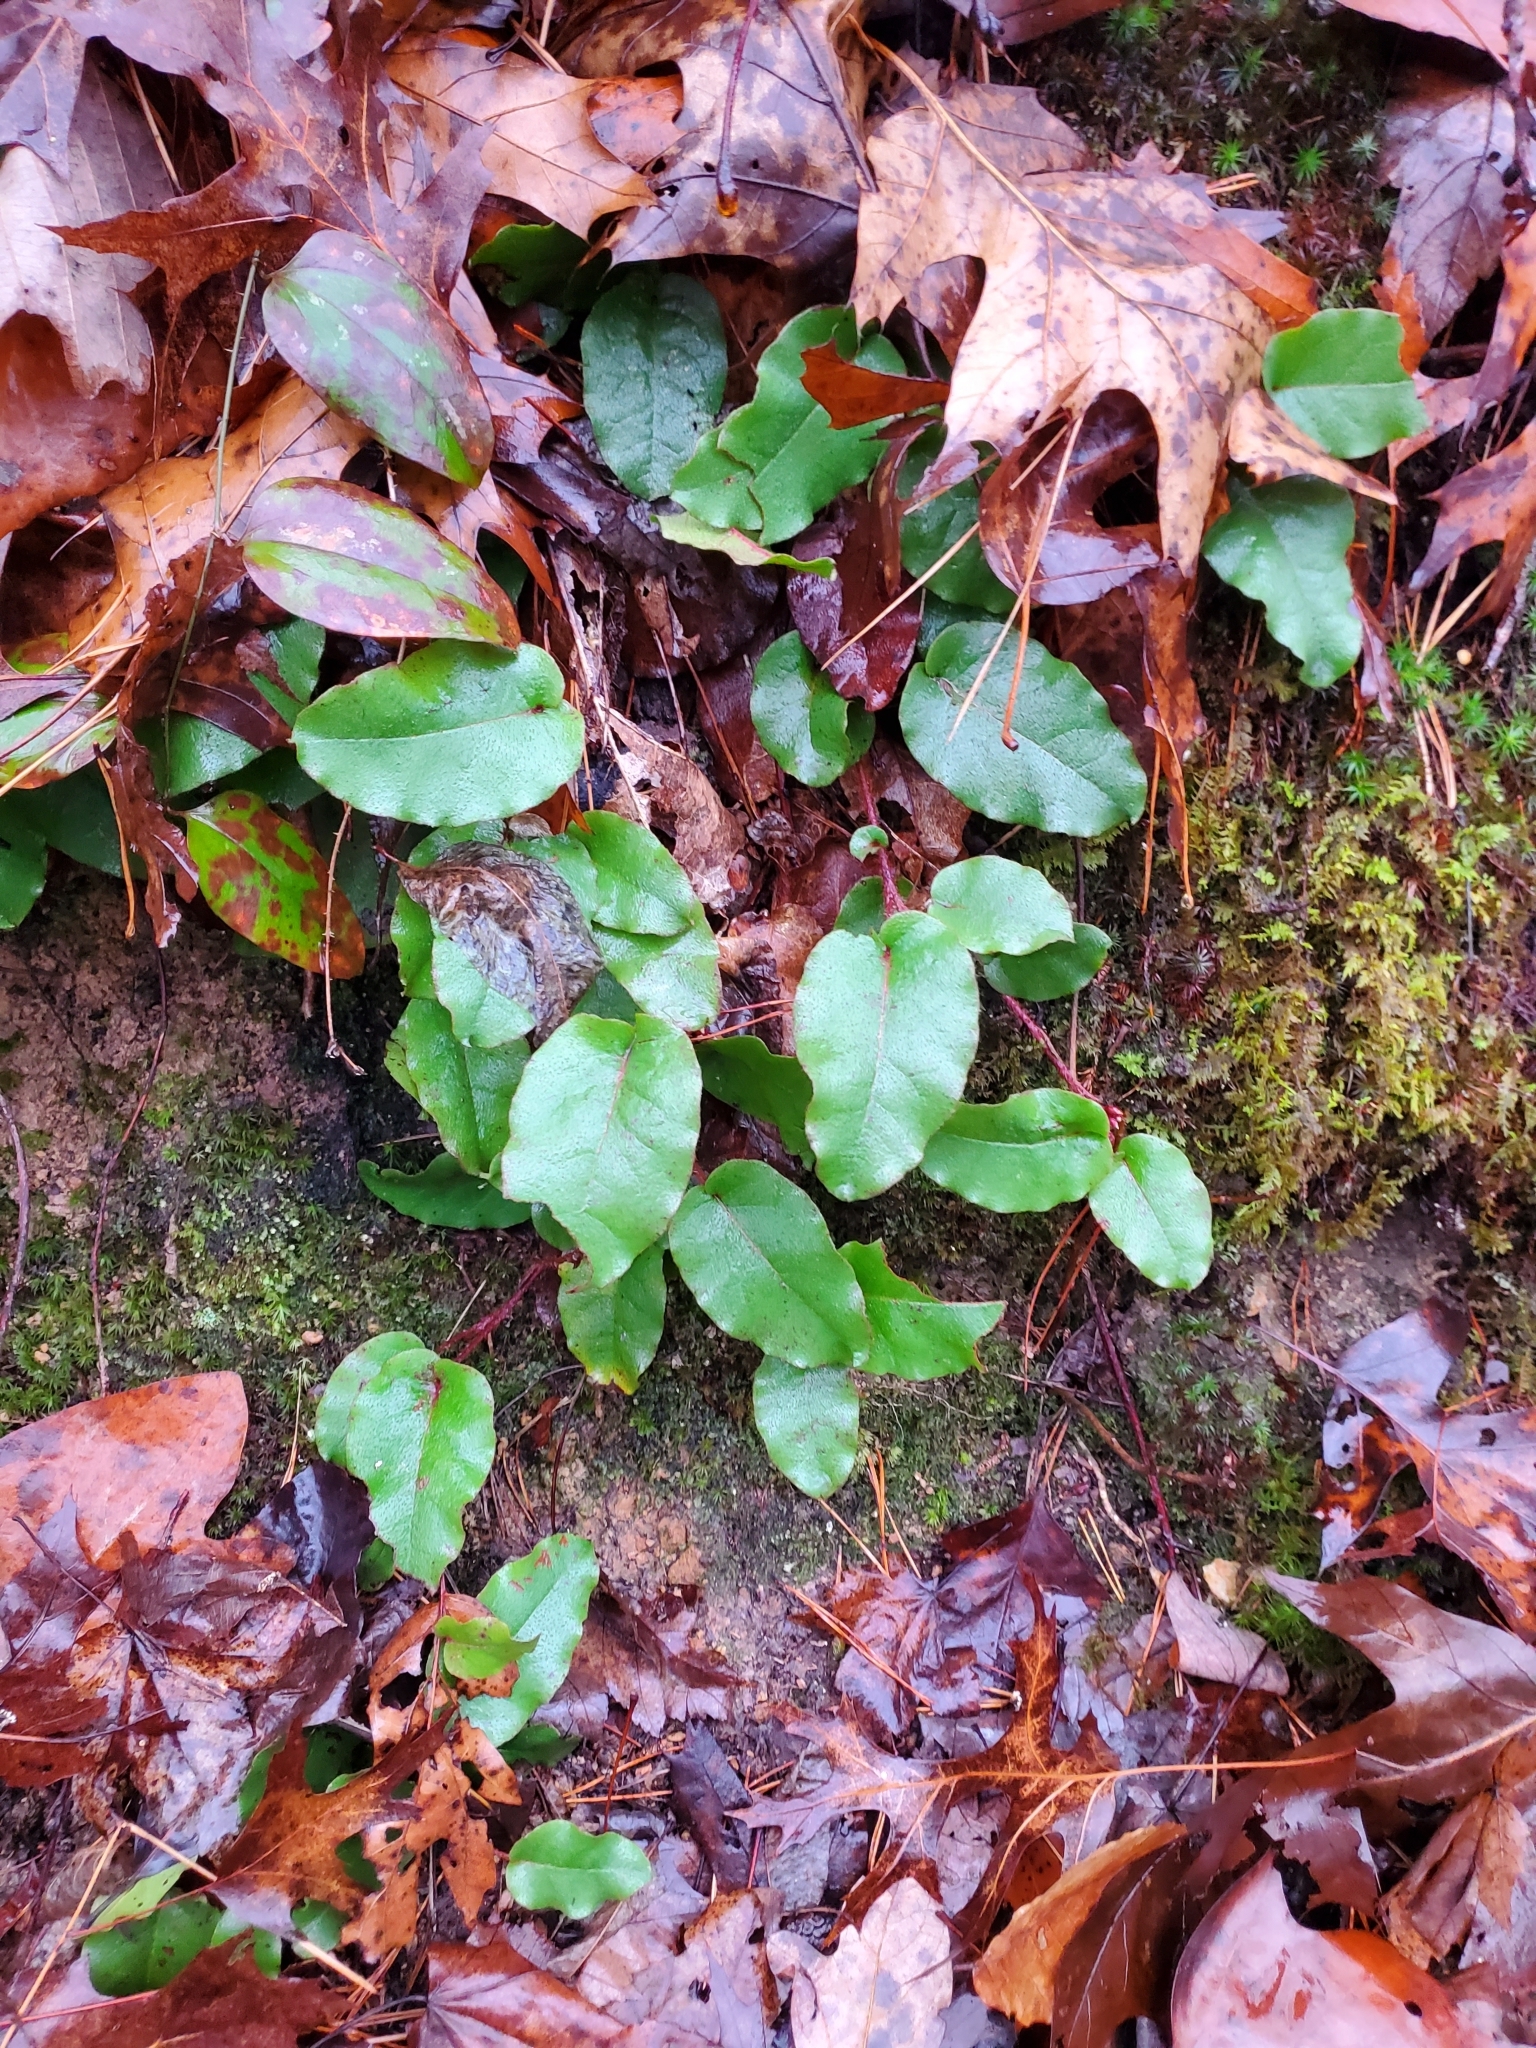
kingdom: Plantae
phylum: Tracheophyta
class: Magnoliopsida
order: Ericales
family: Ericaceae
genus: Epigaea
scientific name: Epigaea repens
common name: Gravelroot
